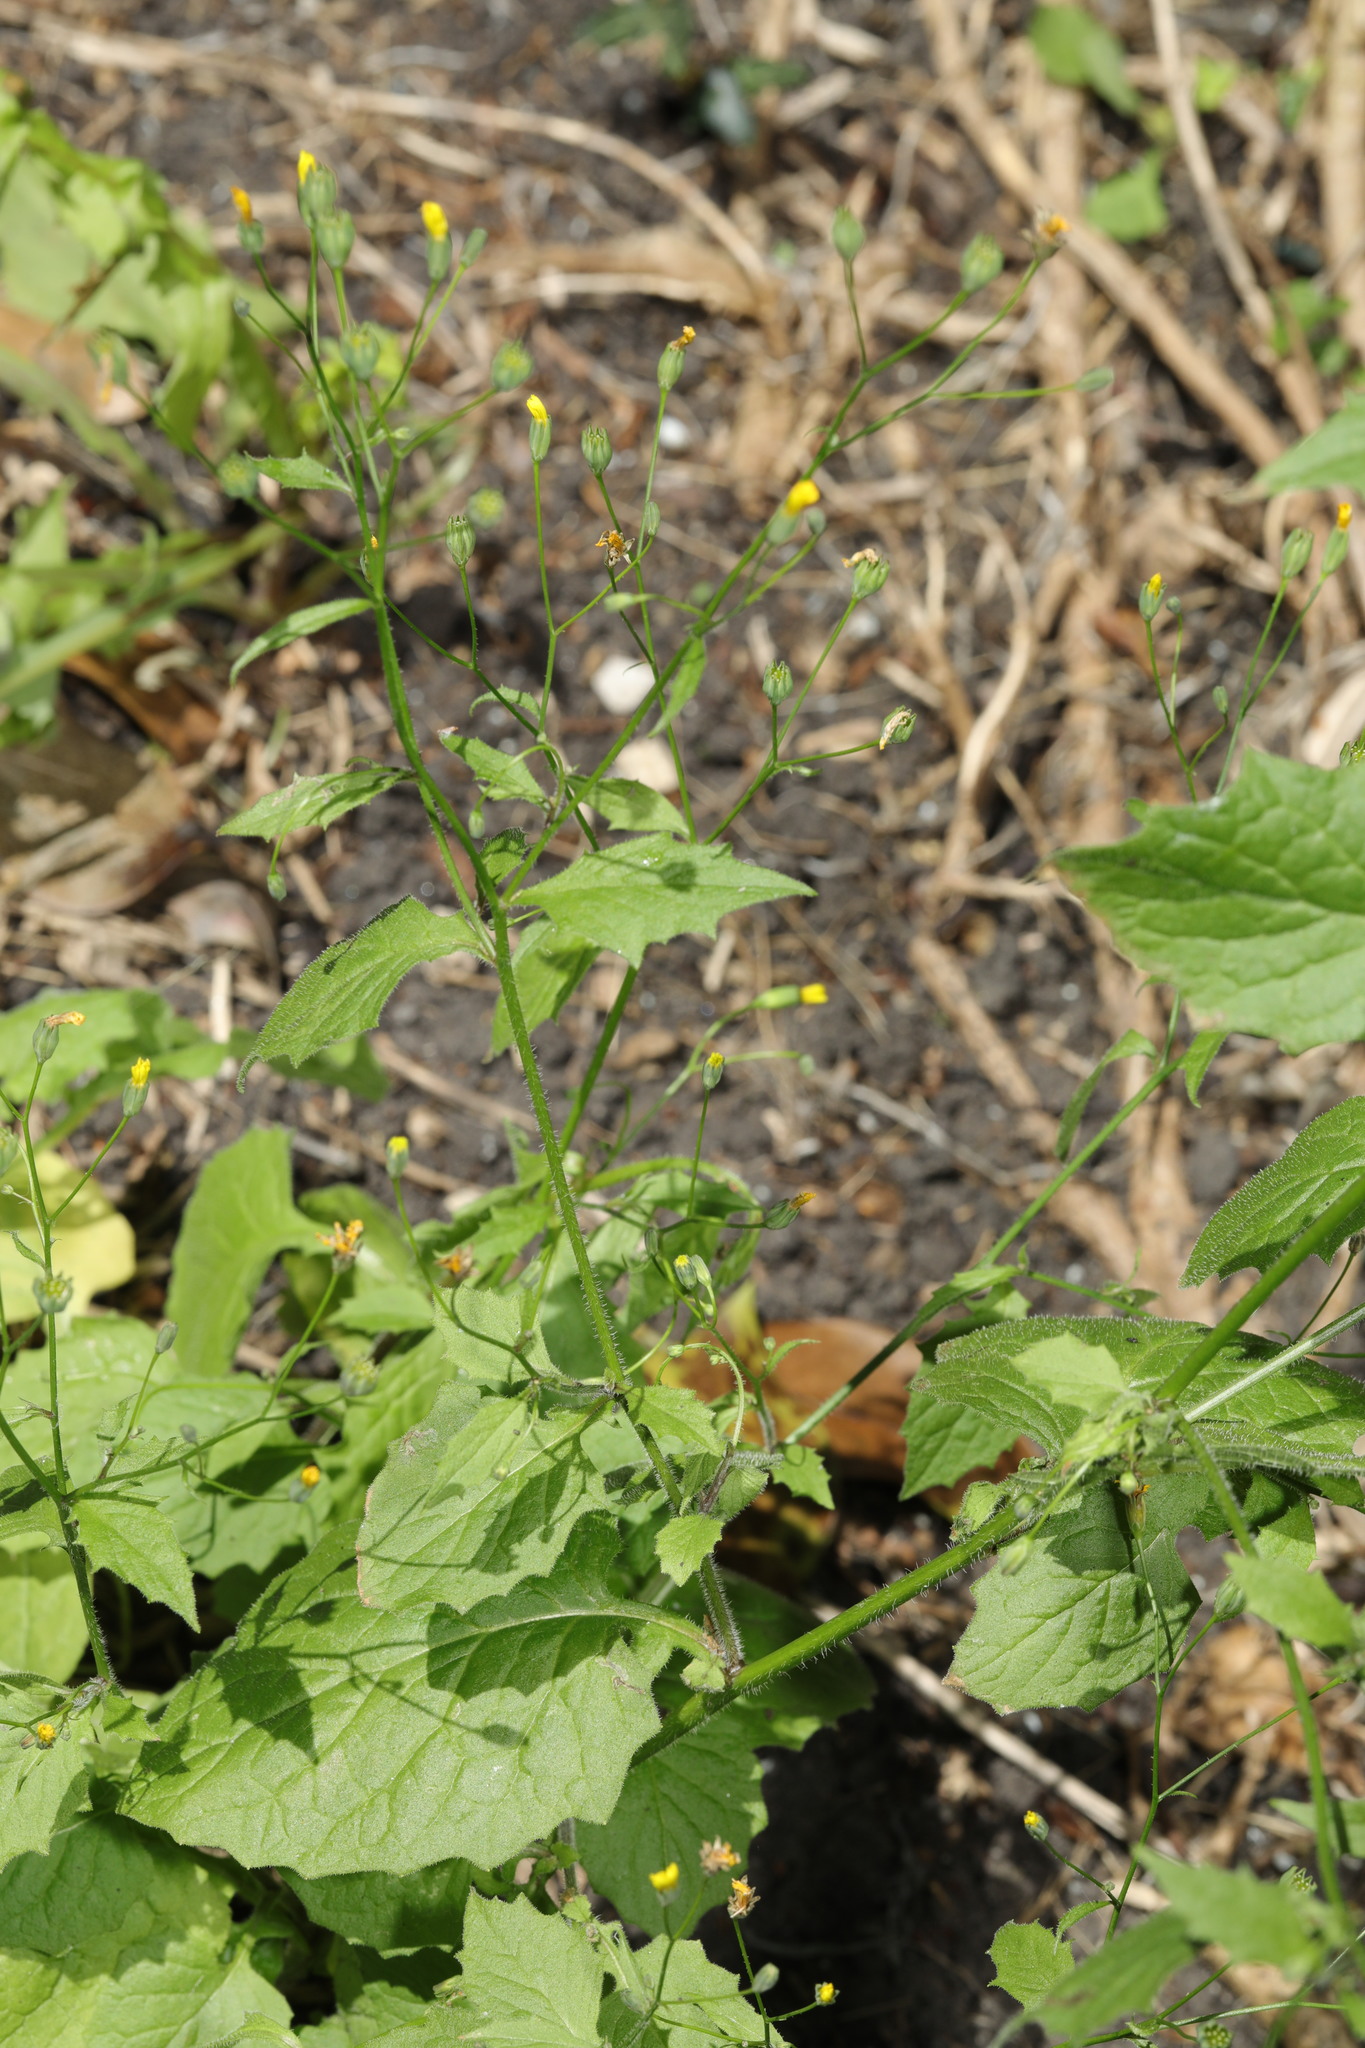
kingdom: Plantae
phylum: Tracheophyta
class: Magnoliopsida
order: Asterales
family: Asteraceae
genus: Lapsana
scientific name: Lapsana communis
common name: Nipplewort
